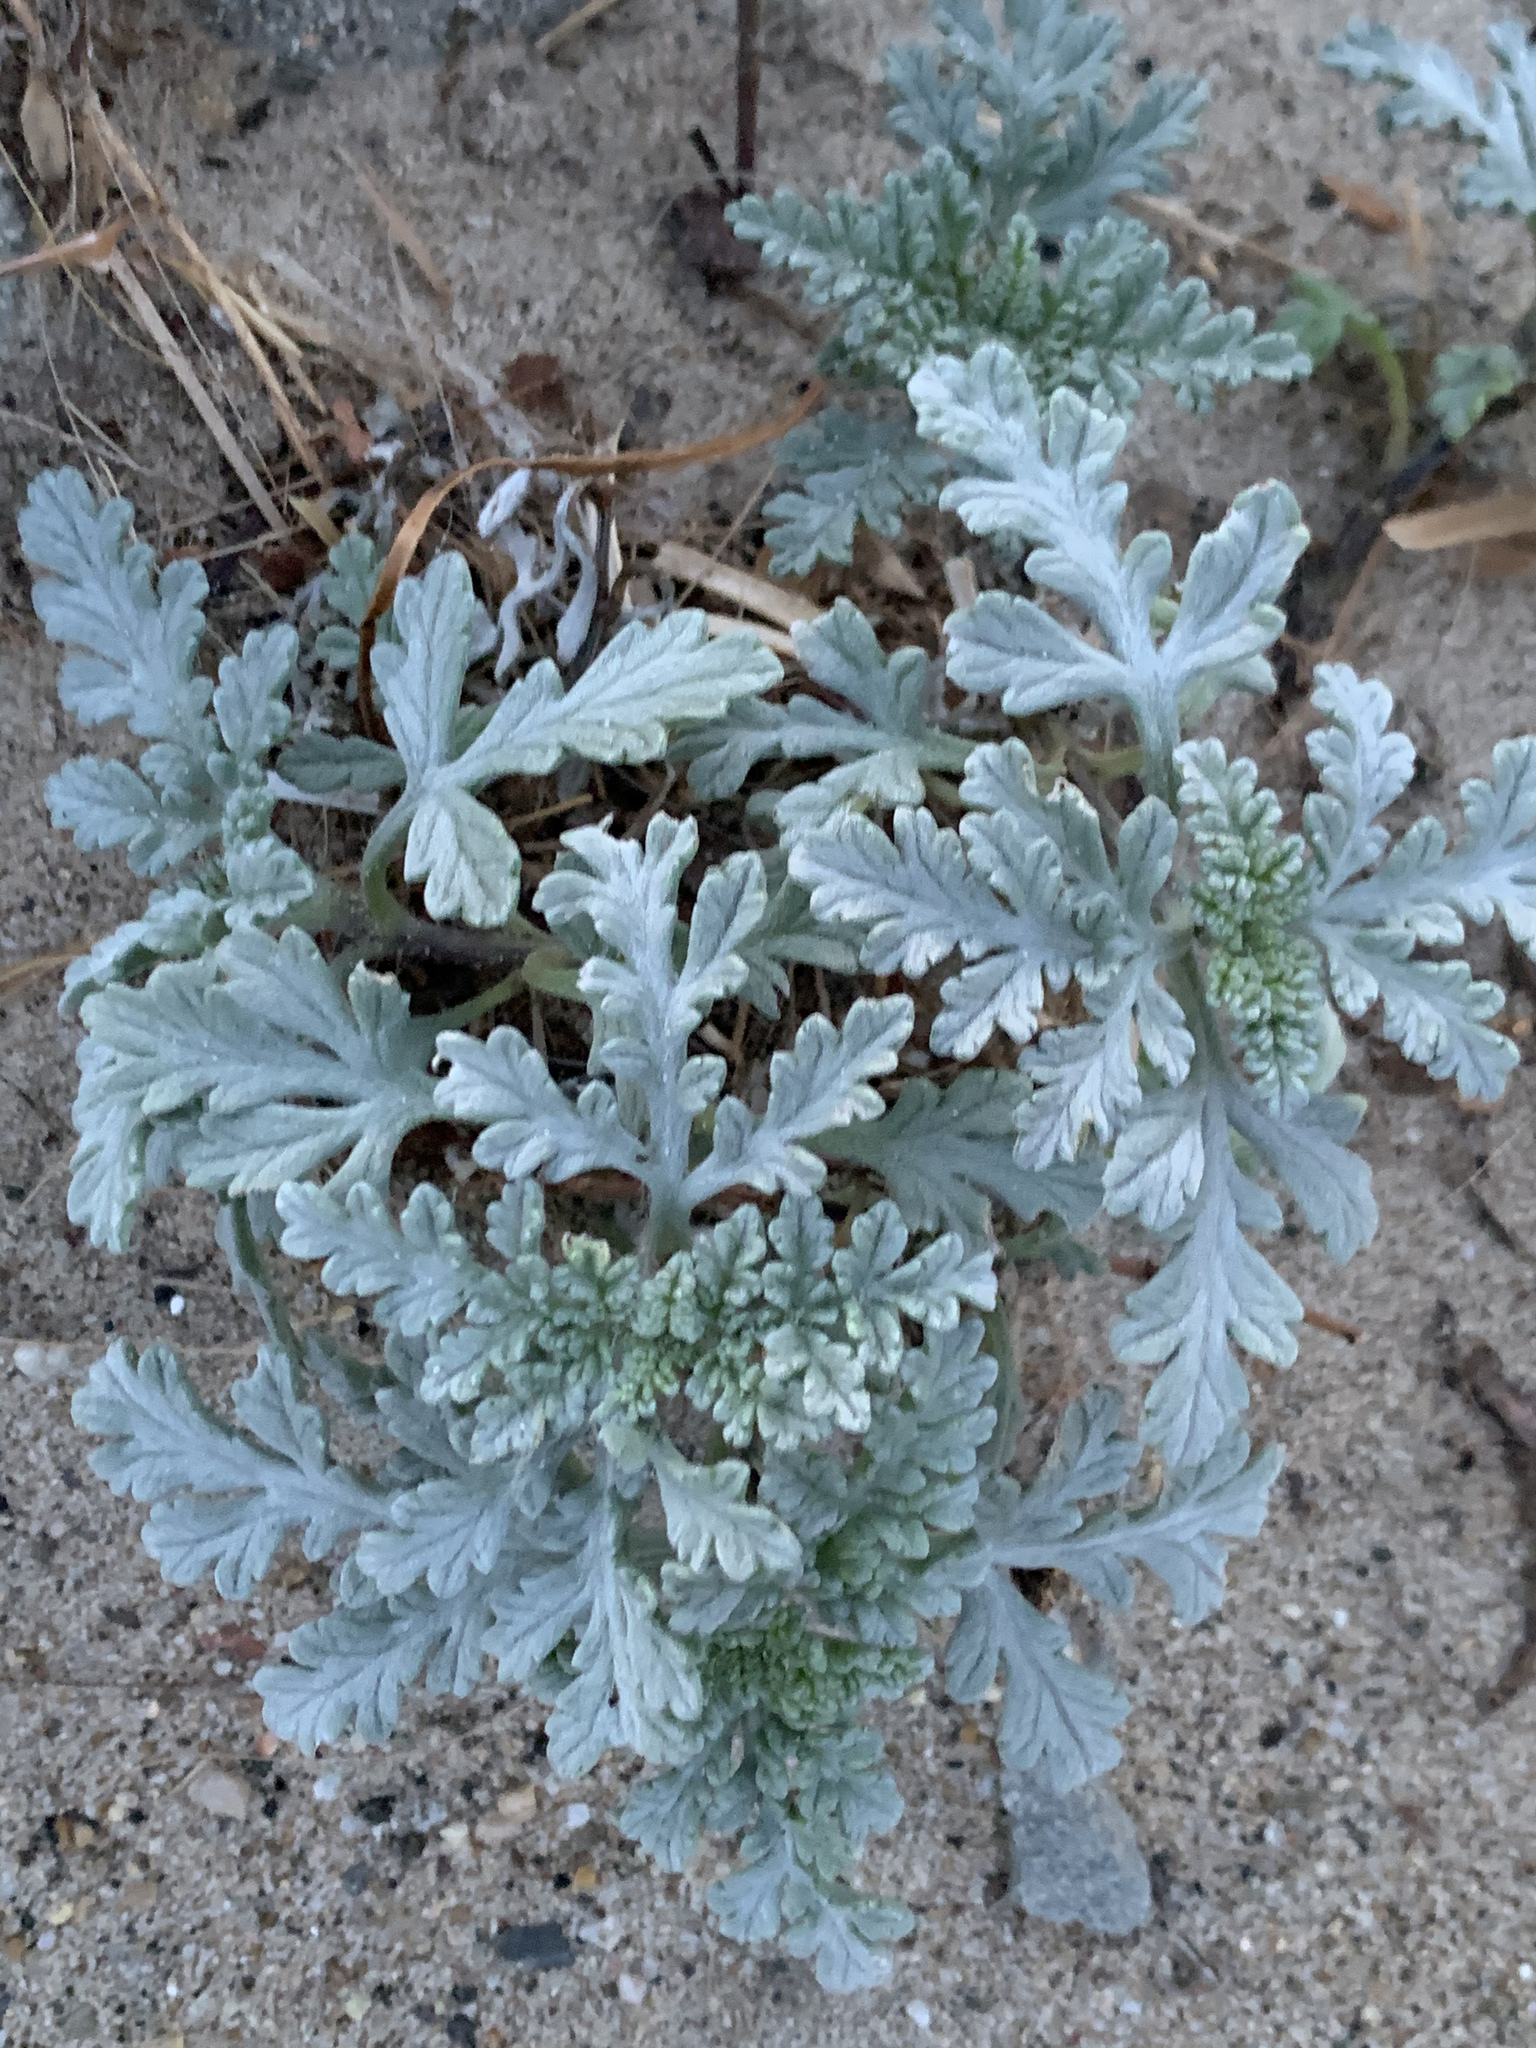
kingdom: Plantae
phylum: Tracheophyta
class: Magnoliopsida
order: Asterales
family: Asteraceae
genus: Ambrosia
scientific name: Ambrosia chamissonis
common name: Beachbur
